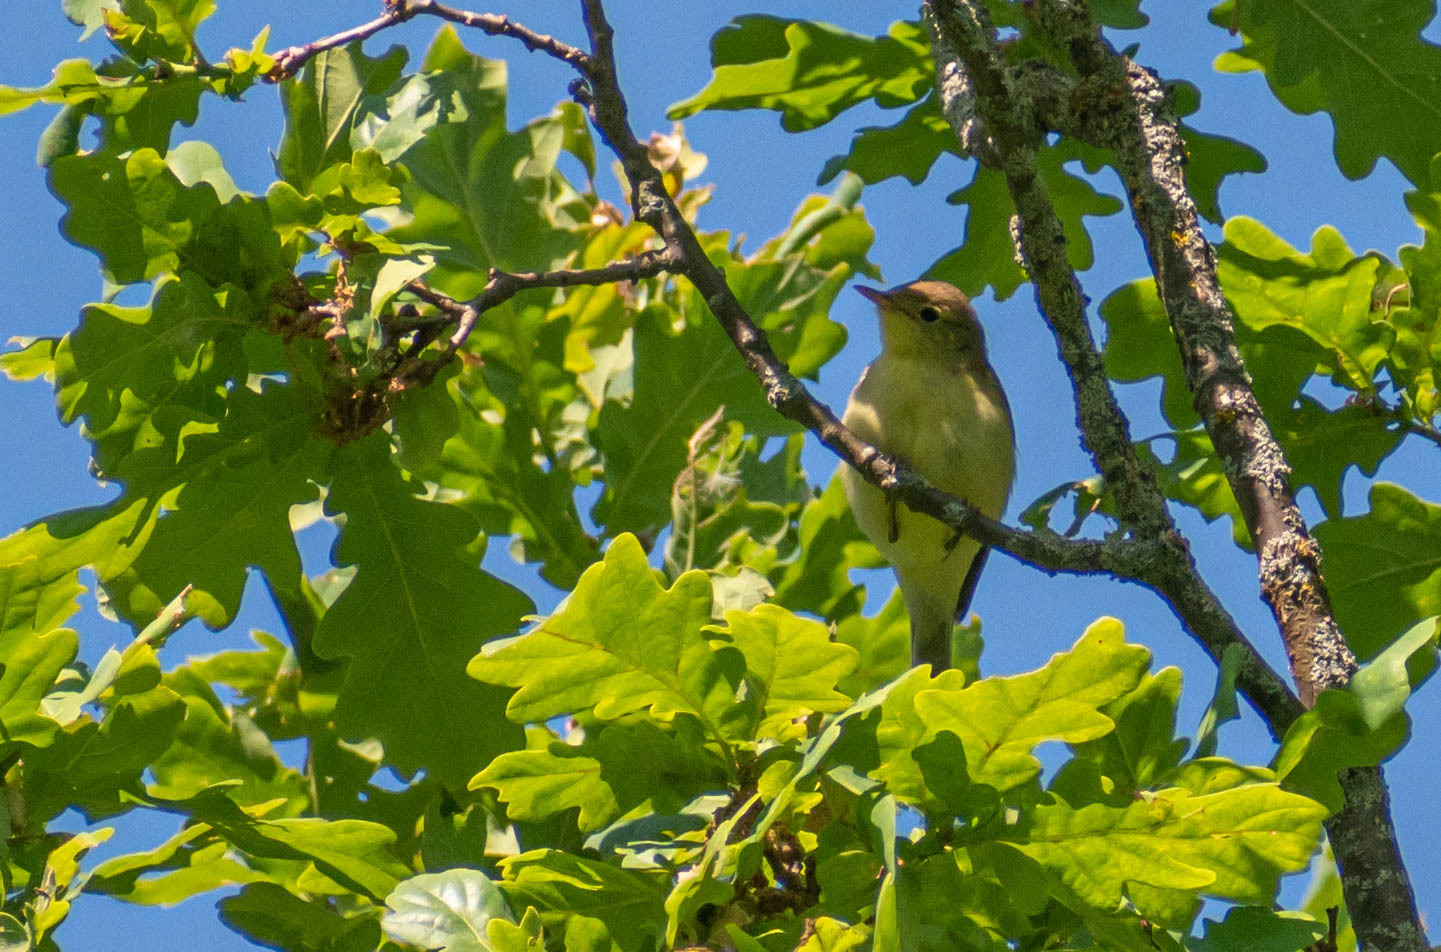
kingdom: Animalia
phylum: Chordata
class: Aves
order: Passeriformes
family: Acrocephalidae
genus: Hippolais
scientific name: Hippolais icterina
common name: Icterine warbler
